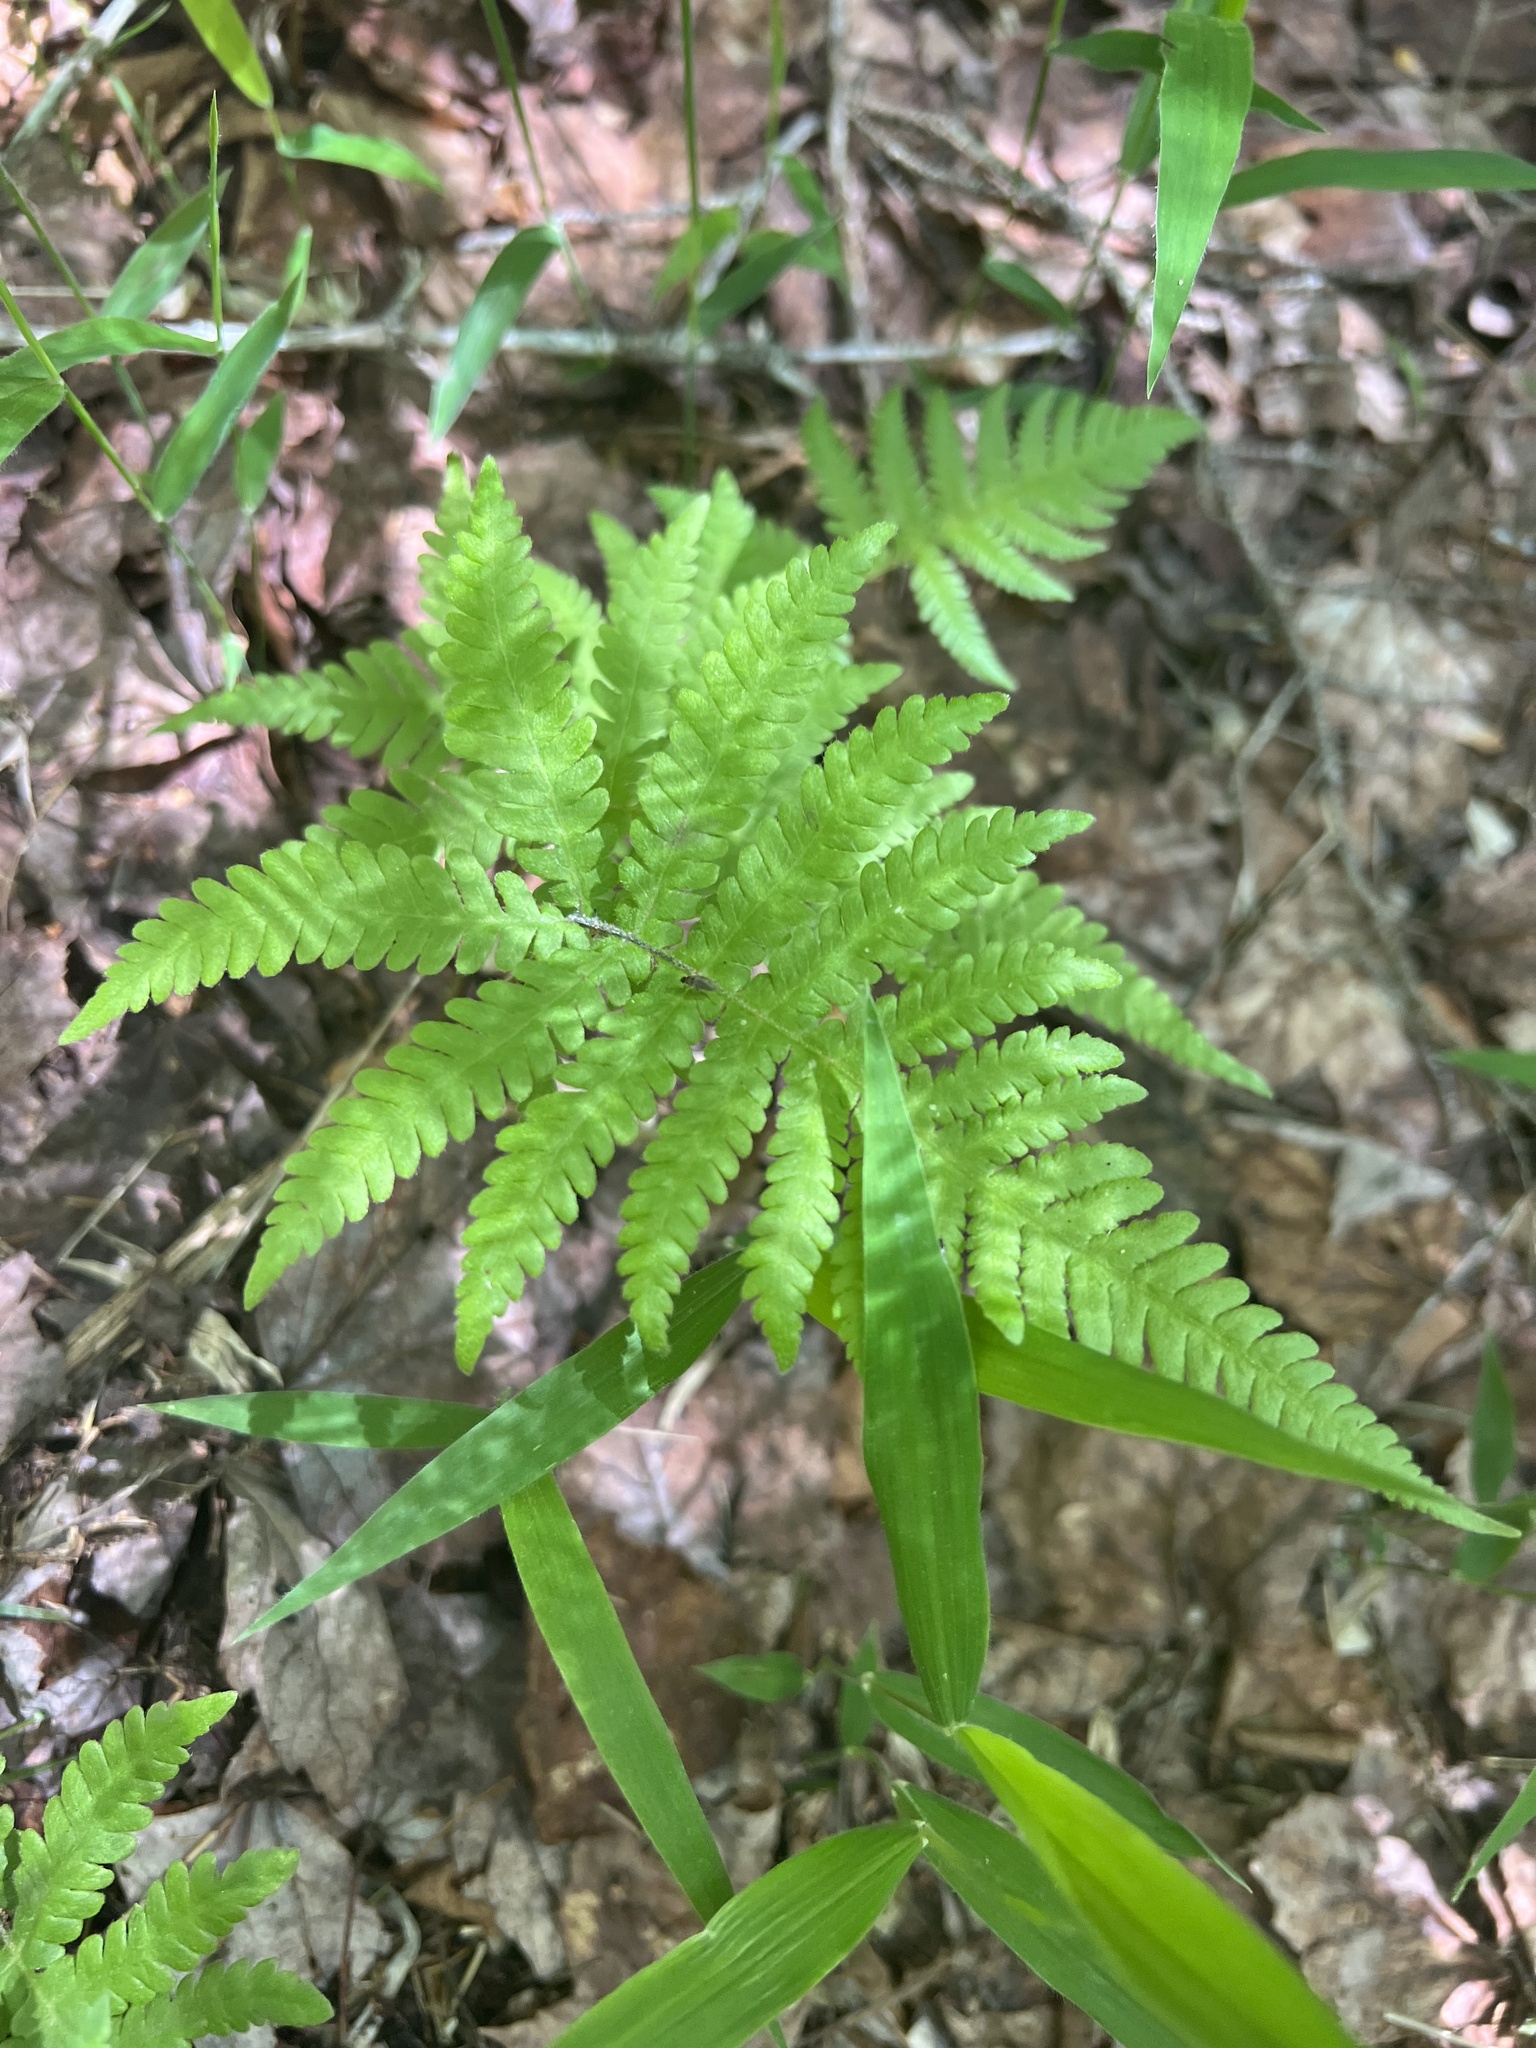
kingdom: Plantae
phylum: Tracheophyta
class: Polypodiopsida
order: Polypodiales
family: Thelypteridaceae
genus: Phegopteris
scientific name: Phegopteris connectilis
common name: Beech fern
